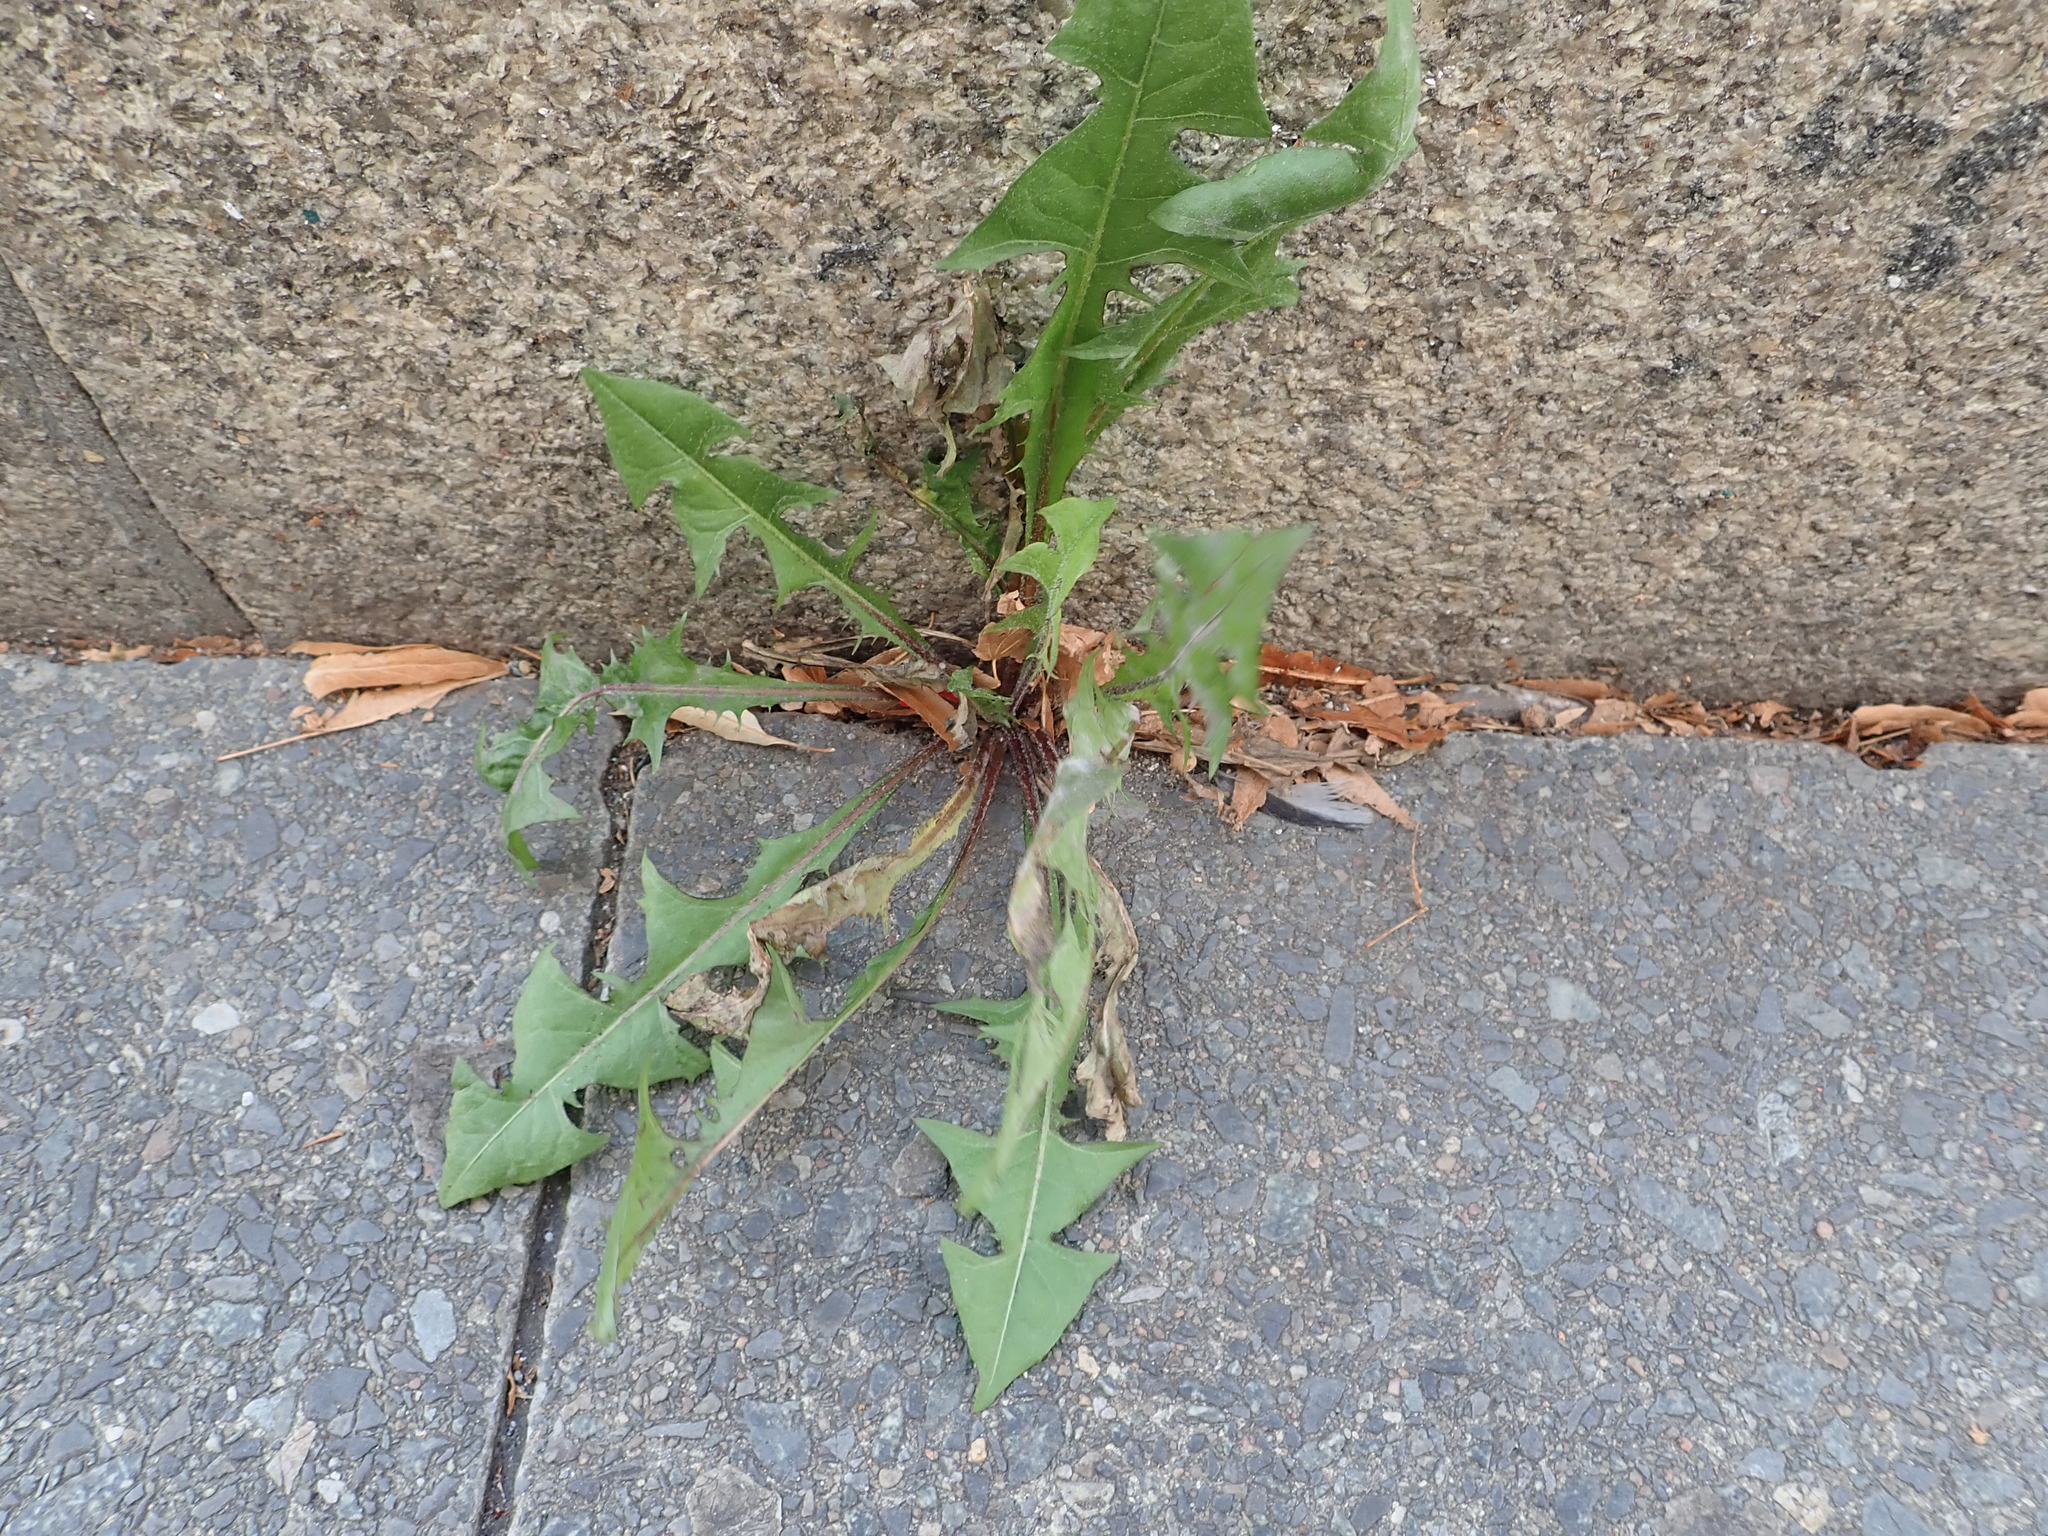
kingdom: Plantae
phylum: Tracheophyta
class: Magnoliopsida
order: Asterales
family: Asteraceae
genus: Taraxacum
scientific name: Taraxacum officinale
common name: Common dandelion
